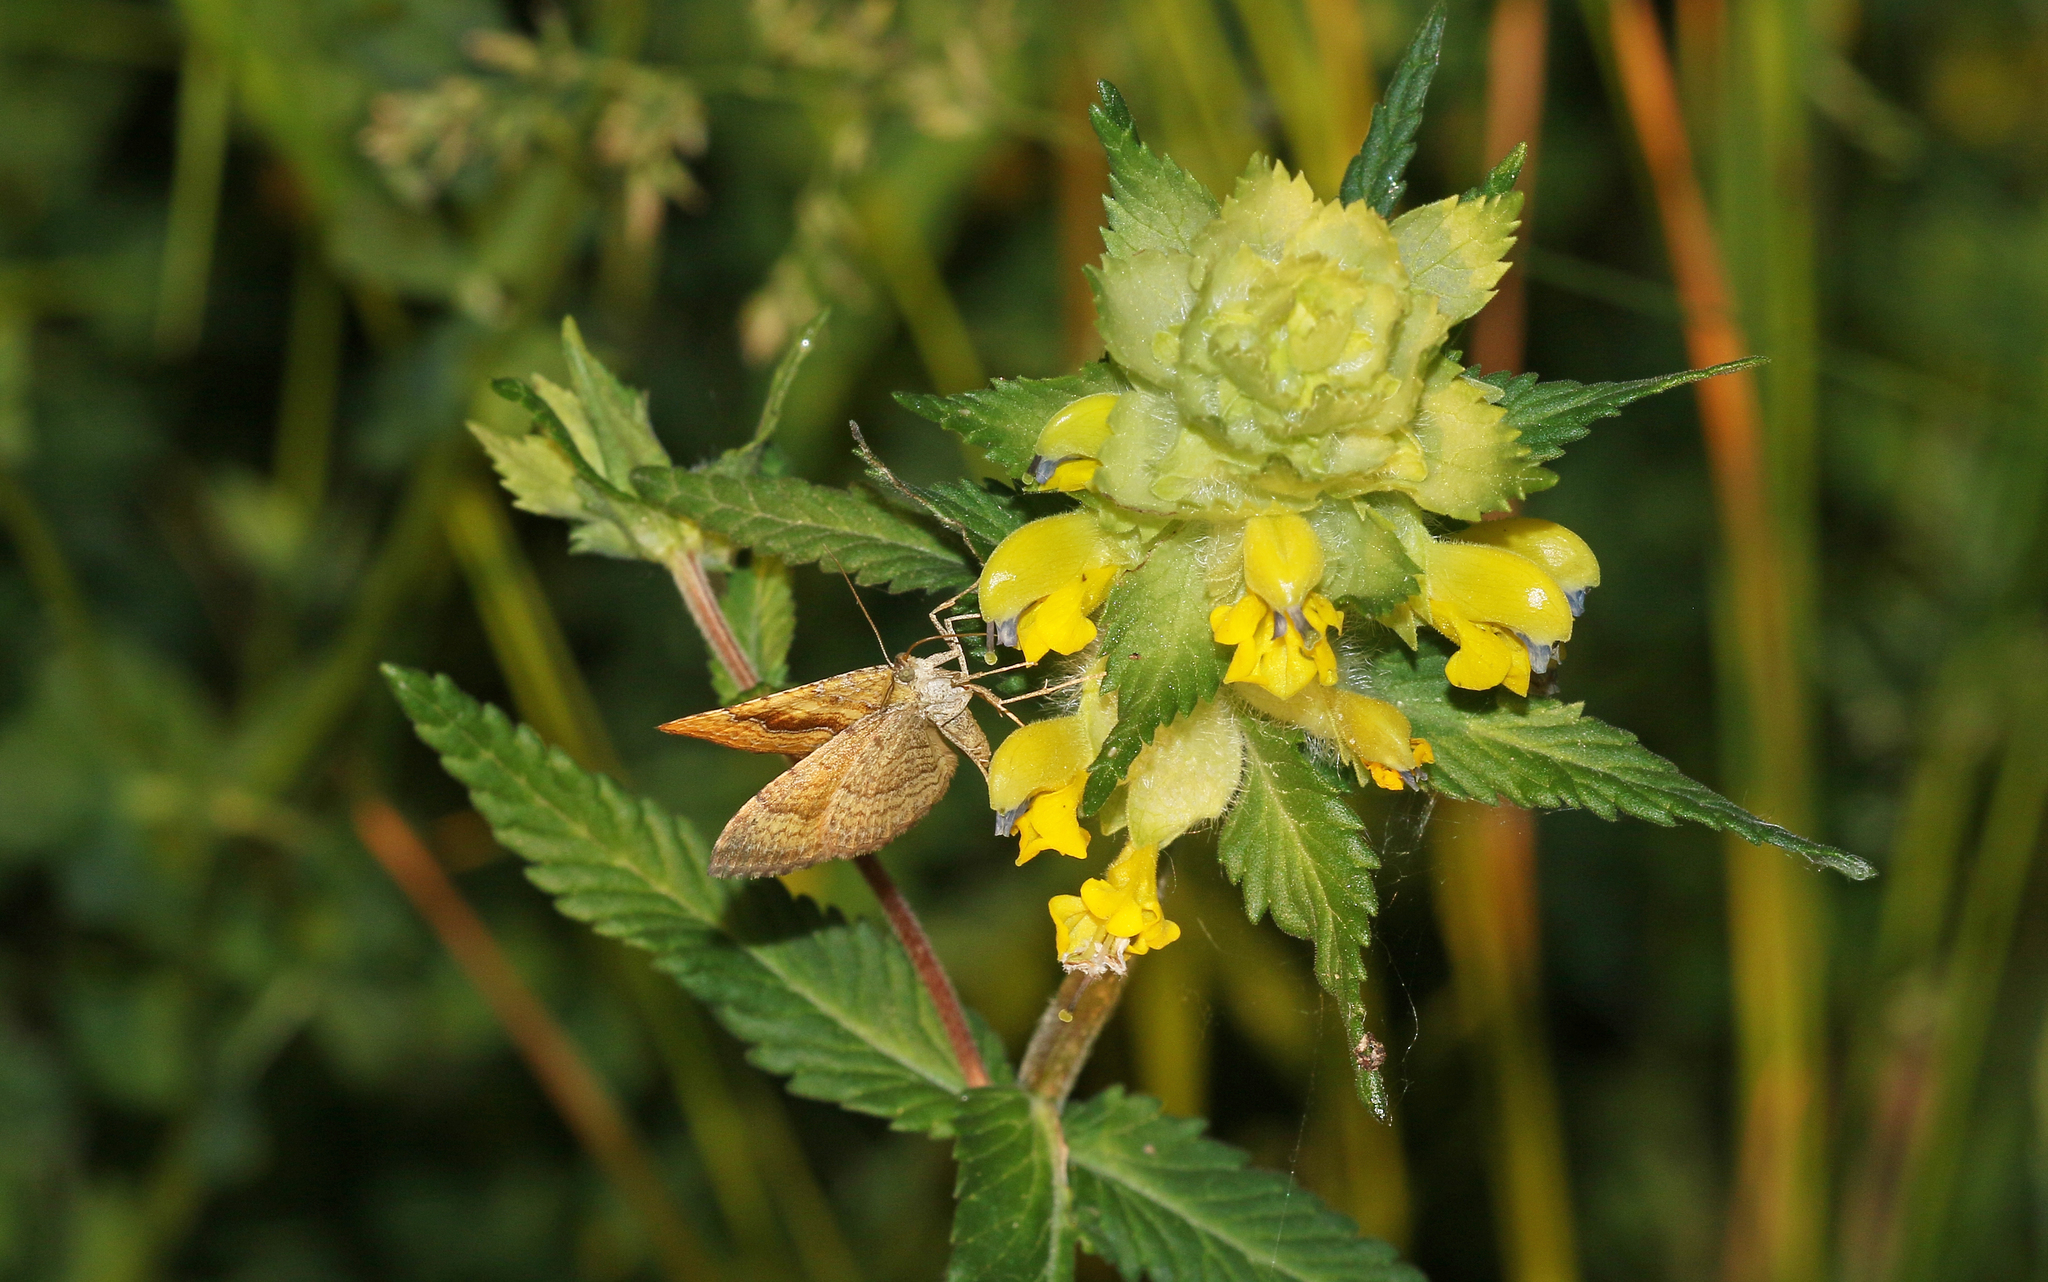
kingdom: Animalia
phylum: Arthropoda
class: Insecta
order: Lepidoptera
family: Geometridae
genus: Camptogramma
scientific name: Camptogramma bilineata
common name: Yellow shell
